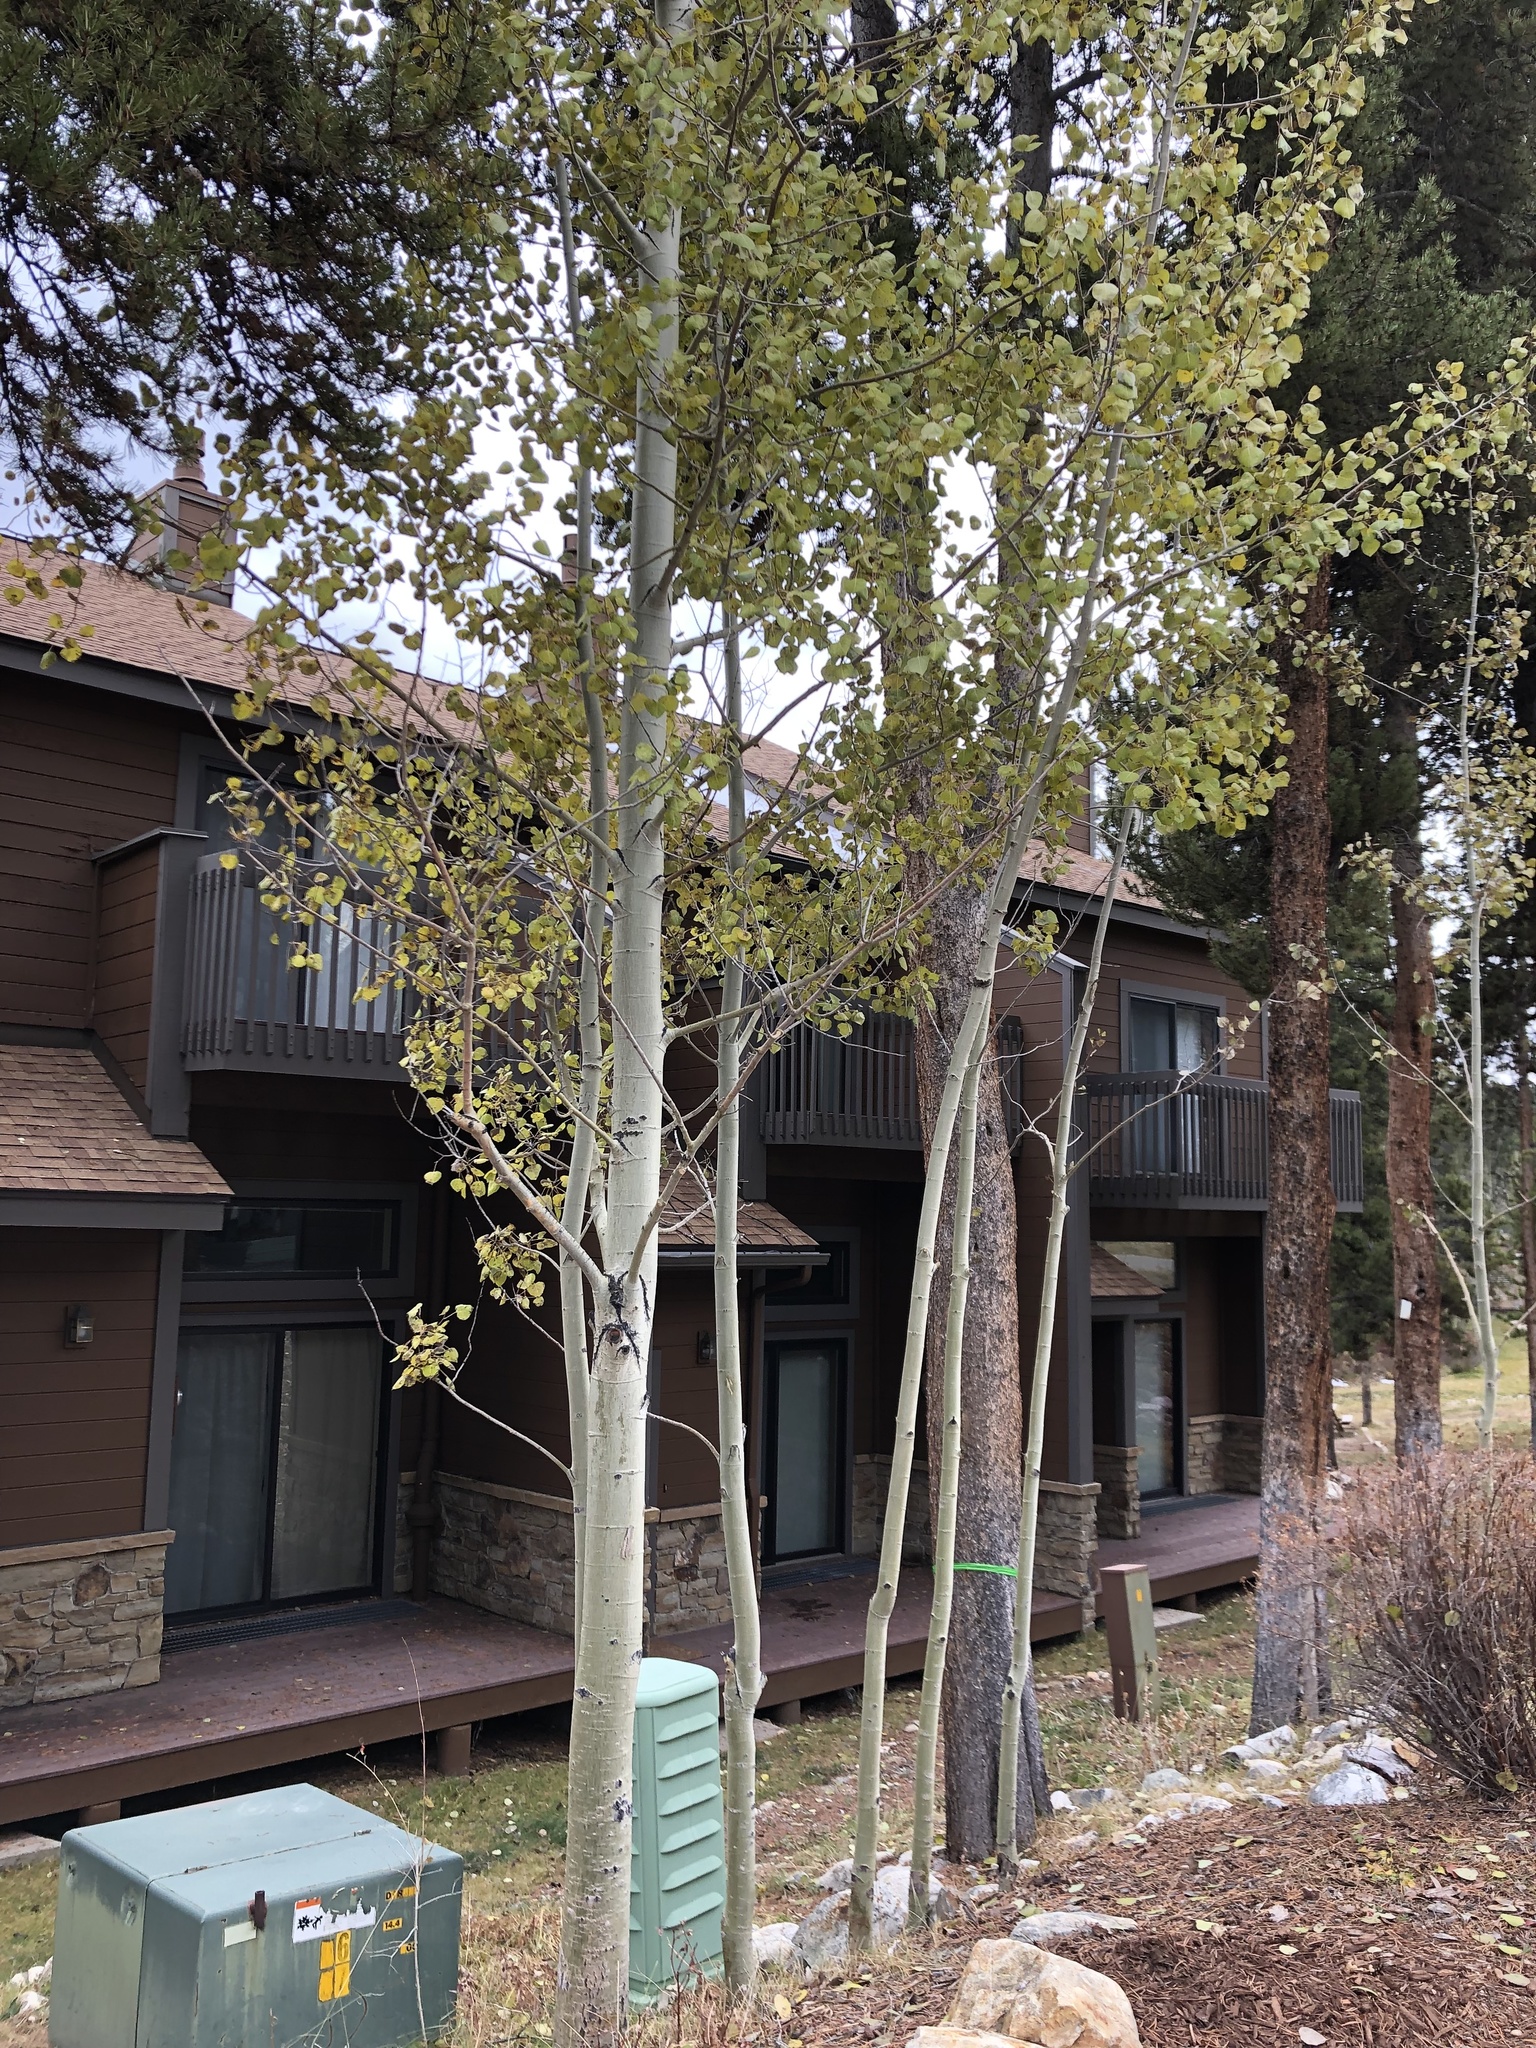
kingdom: Plantae
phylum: Tracheophyta
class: Magnoliopsida
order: Malpighiales
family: Salicaceae
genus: Populus
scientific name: Populus tremuloides
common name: Quaking aspen
